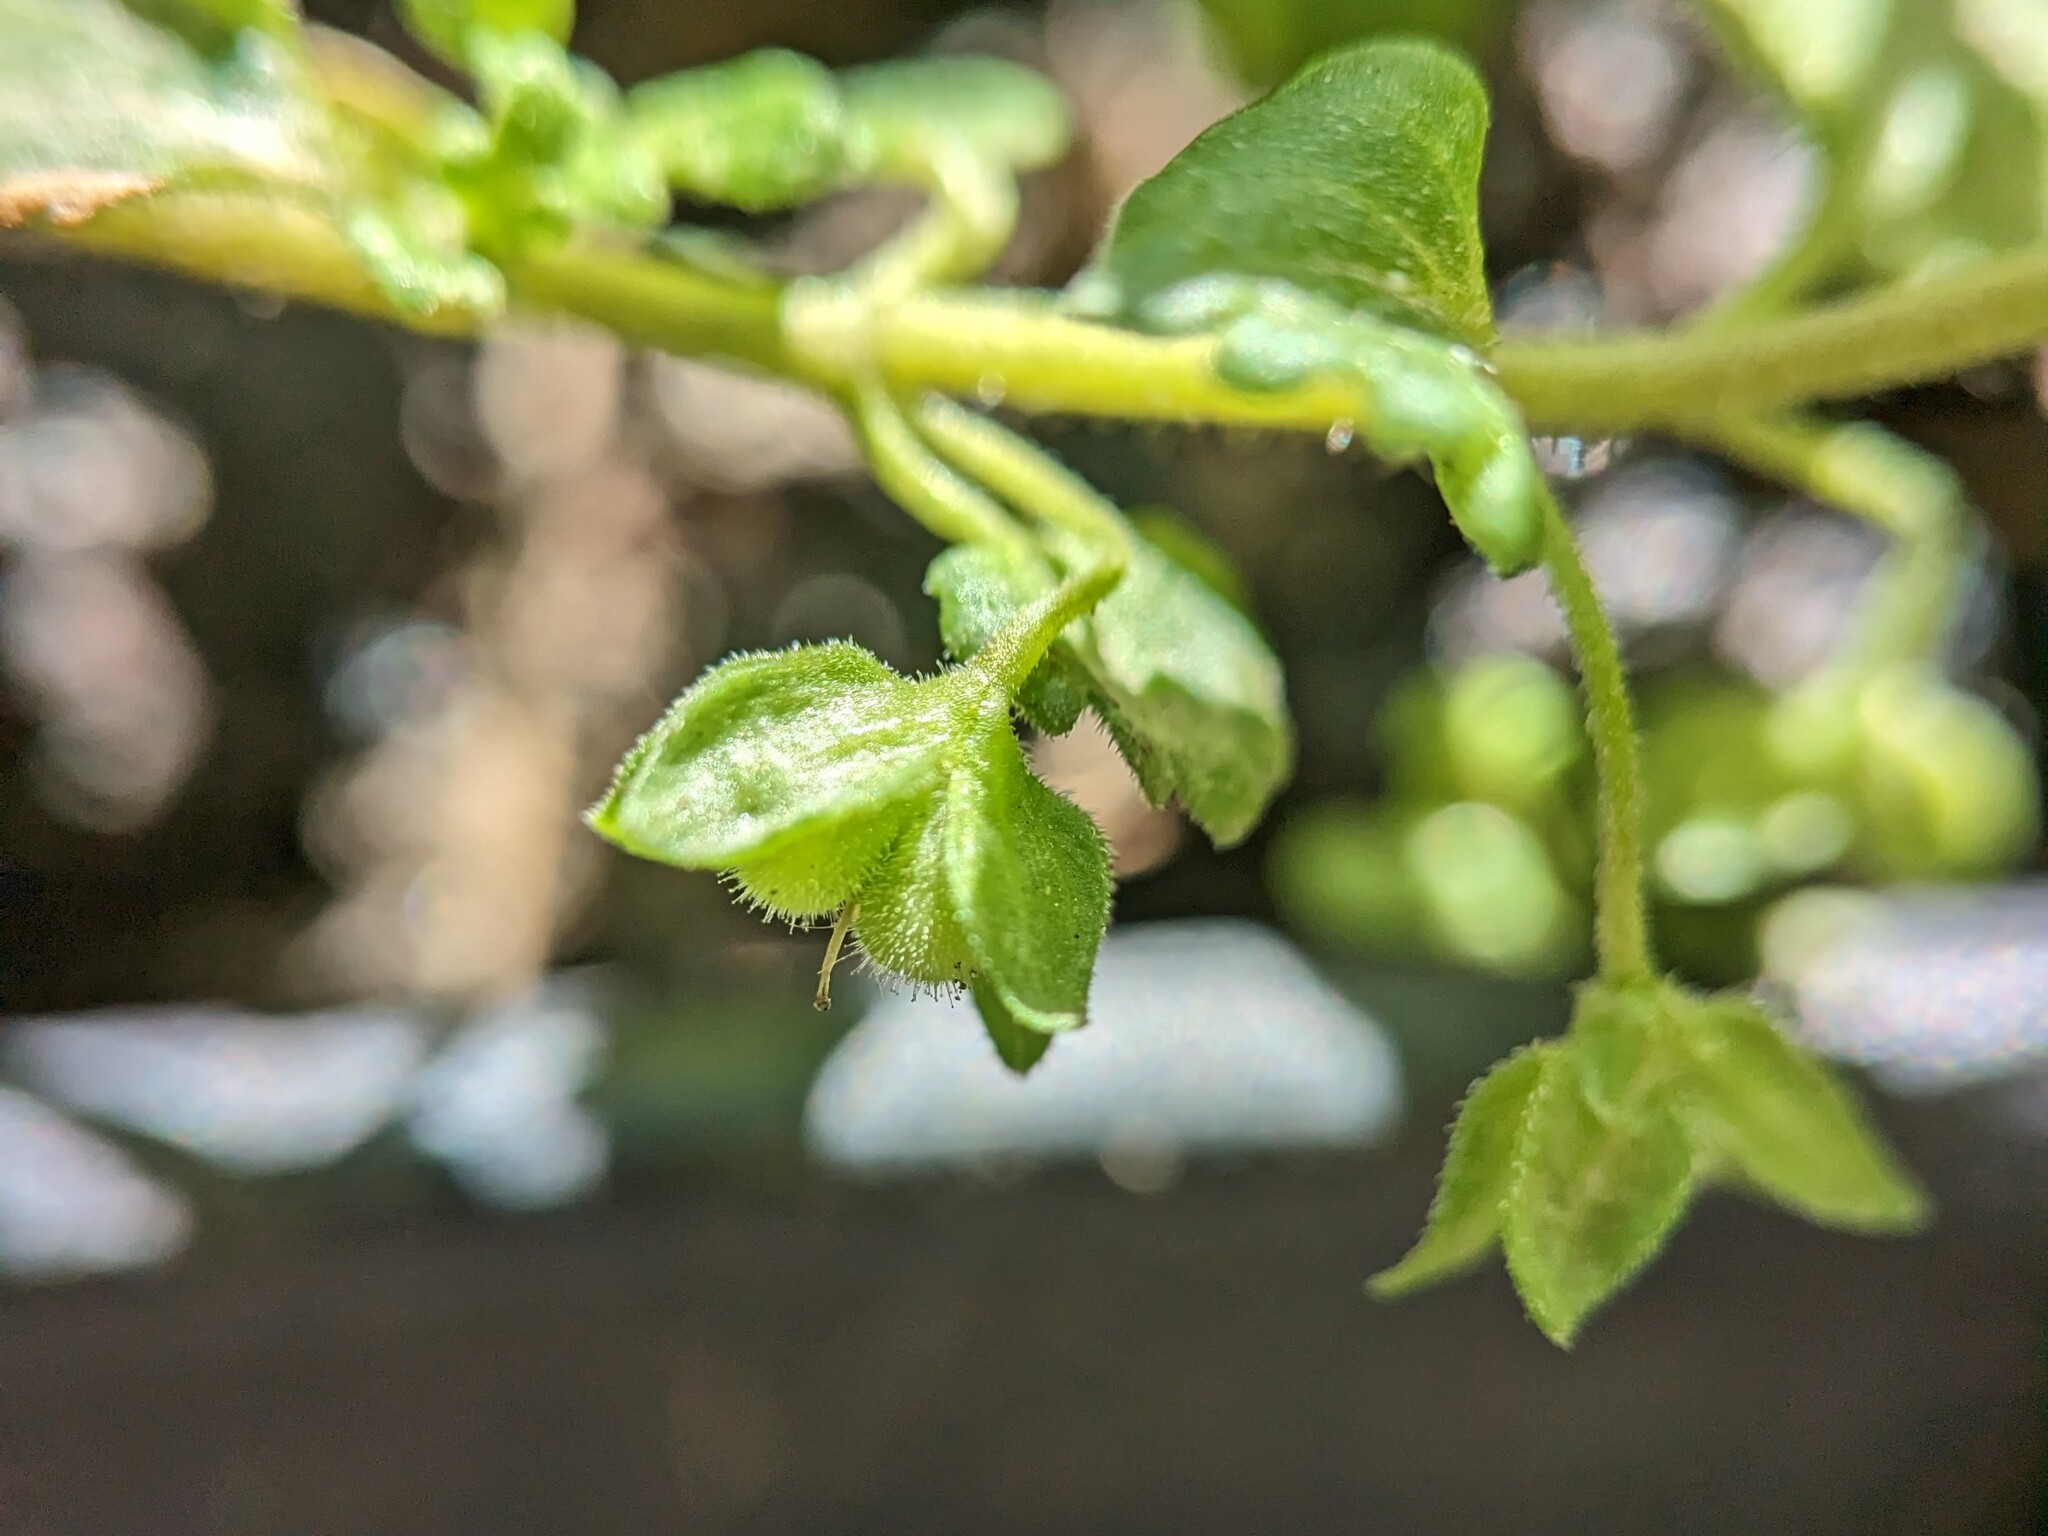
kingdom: Plantae
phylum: Tracheophyta
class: Magnoliopsida
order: Lamiales
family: Plantaginaceae
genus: Veronica
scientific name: Veronica polita
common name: Grey field-speedwell
